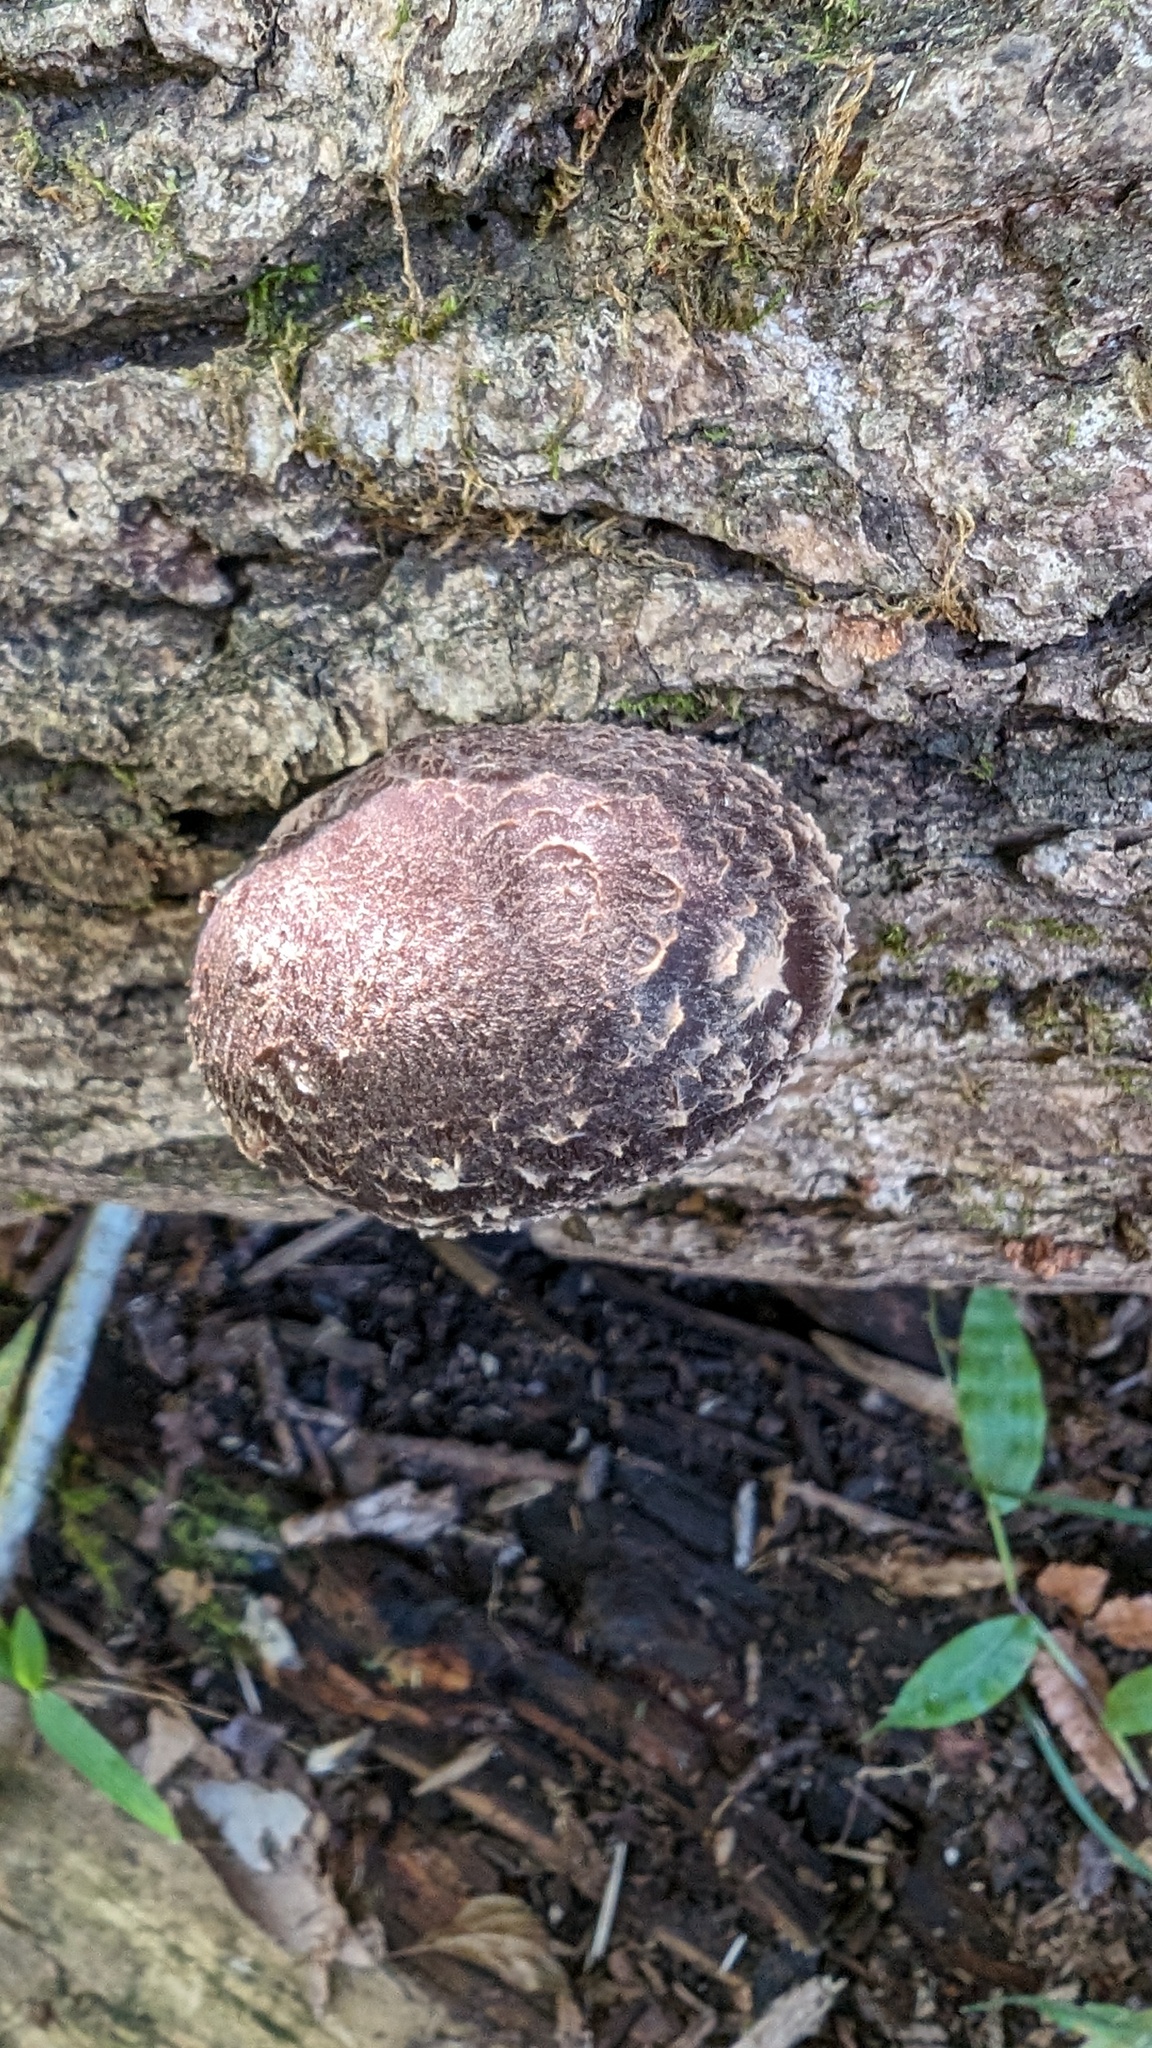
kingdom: Fungi
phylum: Basidiomycota
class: Agaricomycetes
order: Agaricales
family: Omphalotaceae
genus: Lentinula
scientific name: Lentinula edodes
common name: Shiitake
